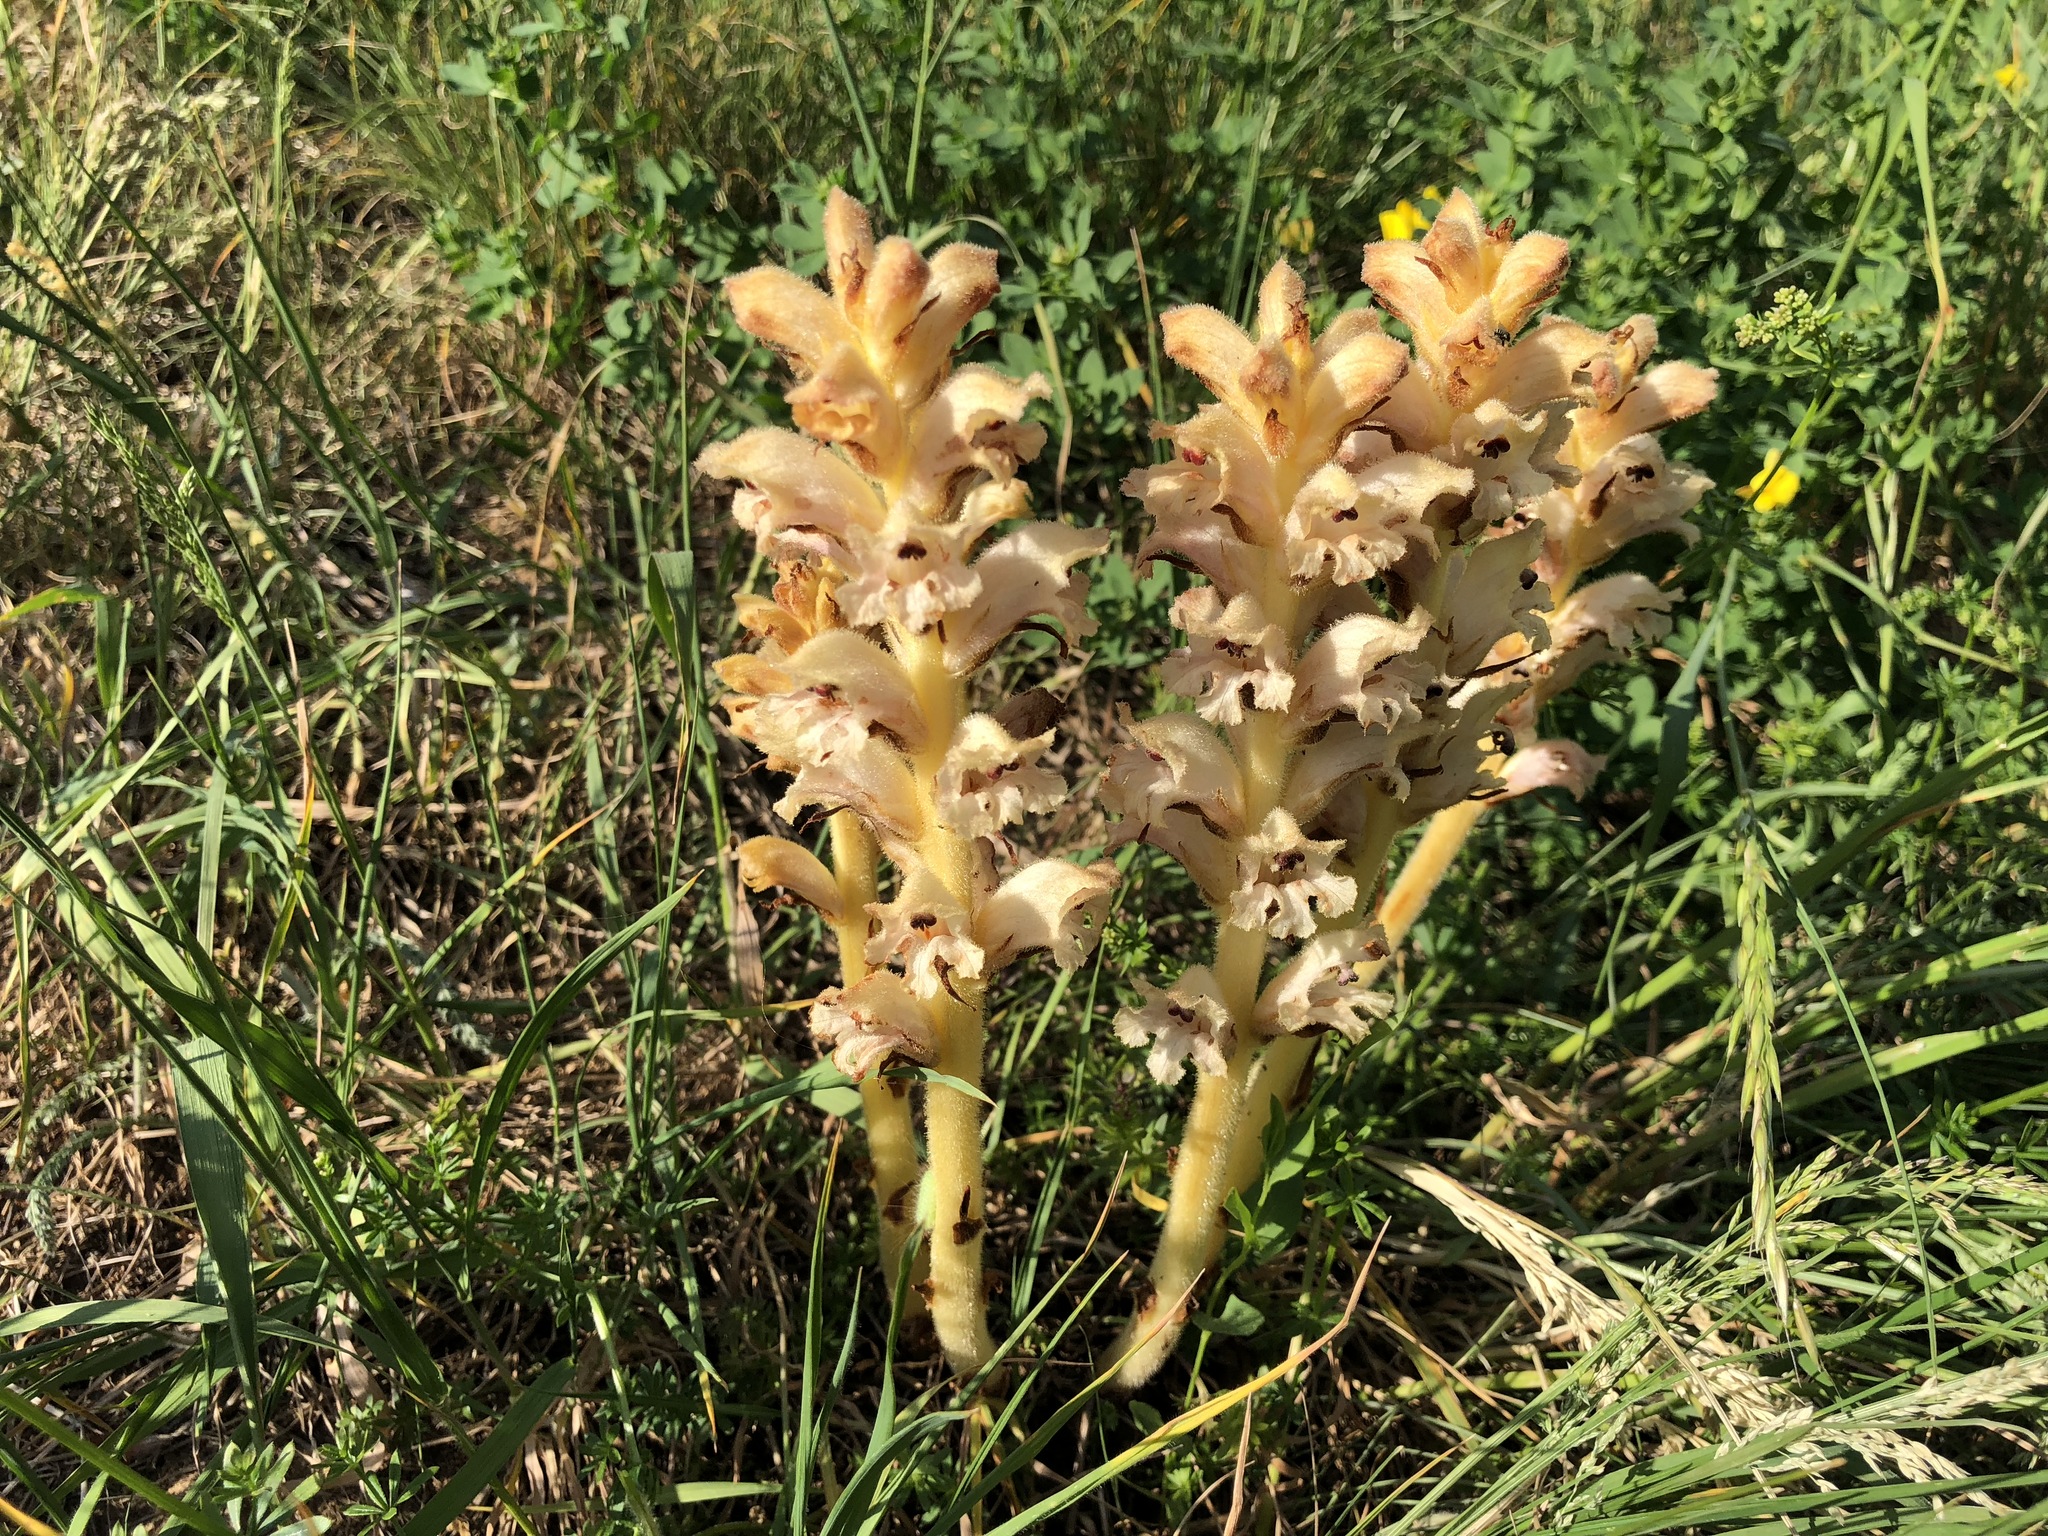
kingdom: Plantae
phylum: Tracheophyta
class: Magnoliopsida
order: Lamiales
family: Orobanchaceae
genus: Orobanche
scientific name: Orobanche caryophyllacea
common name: Bedstraw broomrape
